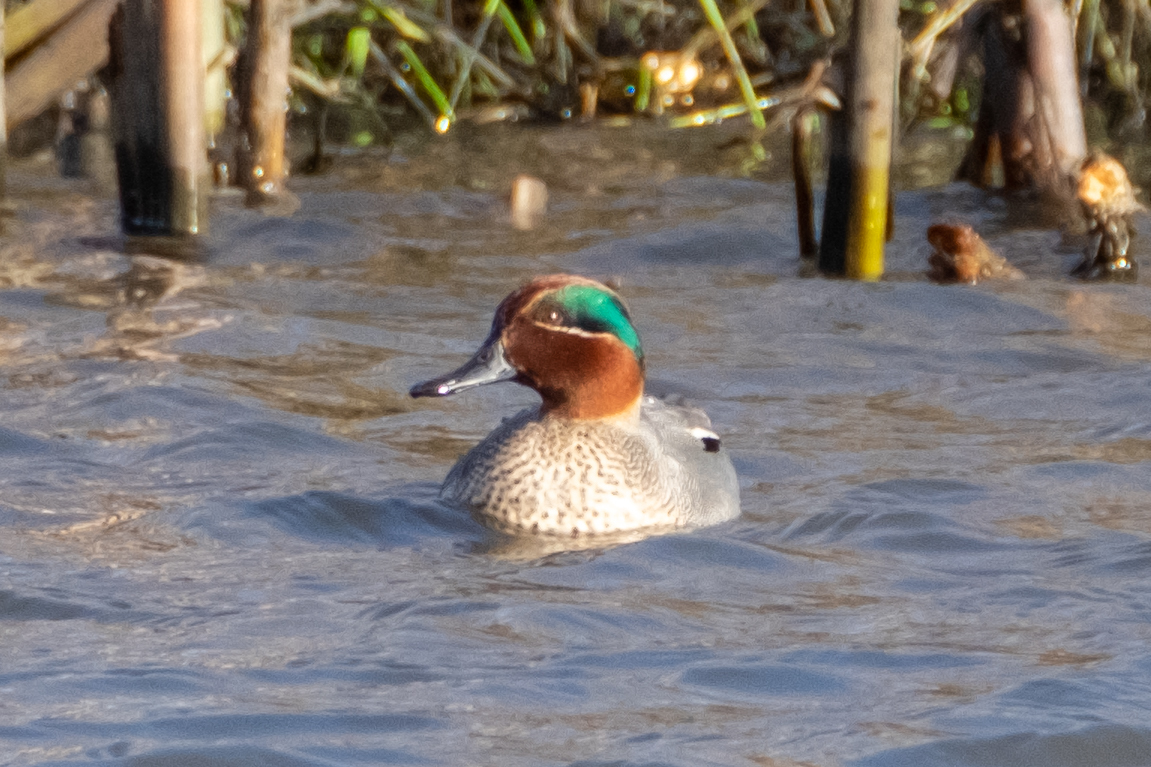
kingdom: Animalia
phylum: Chordata
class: Aves
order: Anseriformes
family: Anatidae
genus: Anas
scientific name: Anas crecca
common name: Eurasian teal
